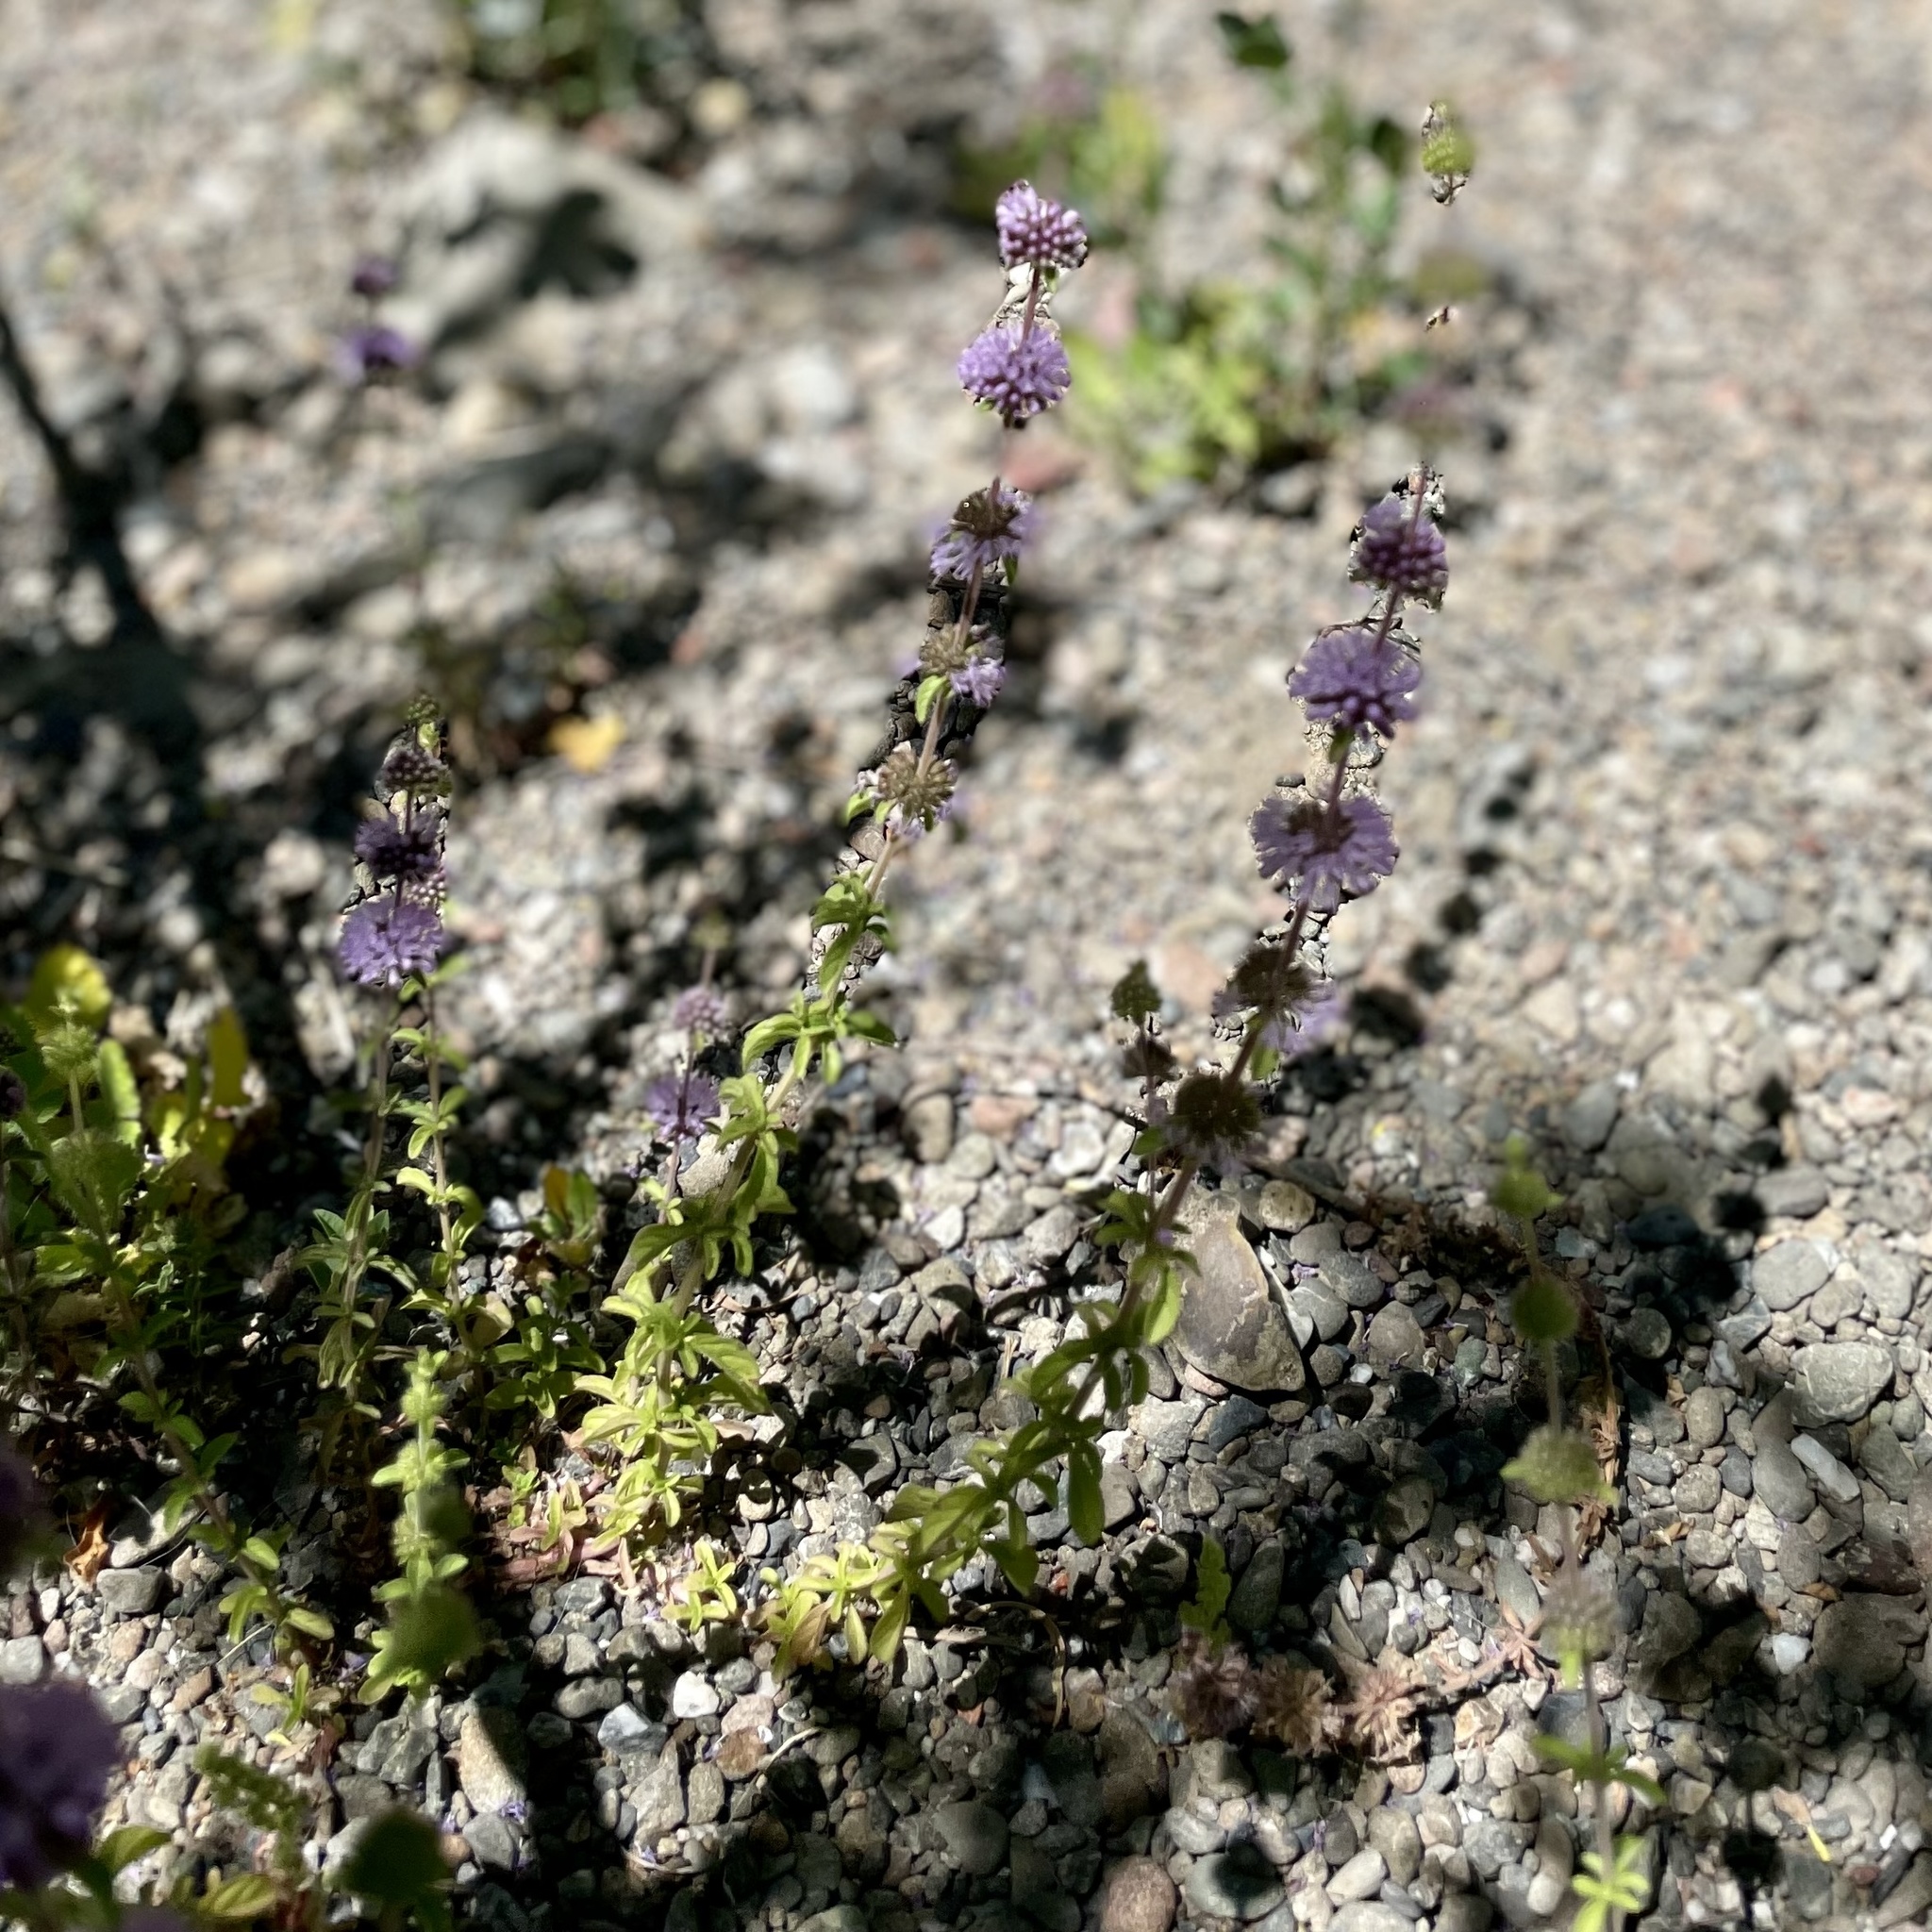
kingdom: Plantae
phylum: Tracheophyta
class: Magnoliopsida
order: Lamiales
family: Lamiaceae
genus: Mentha
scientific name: Mentha pulegium
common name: Pennyroyal
